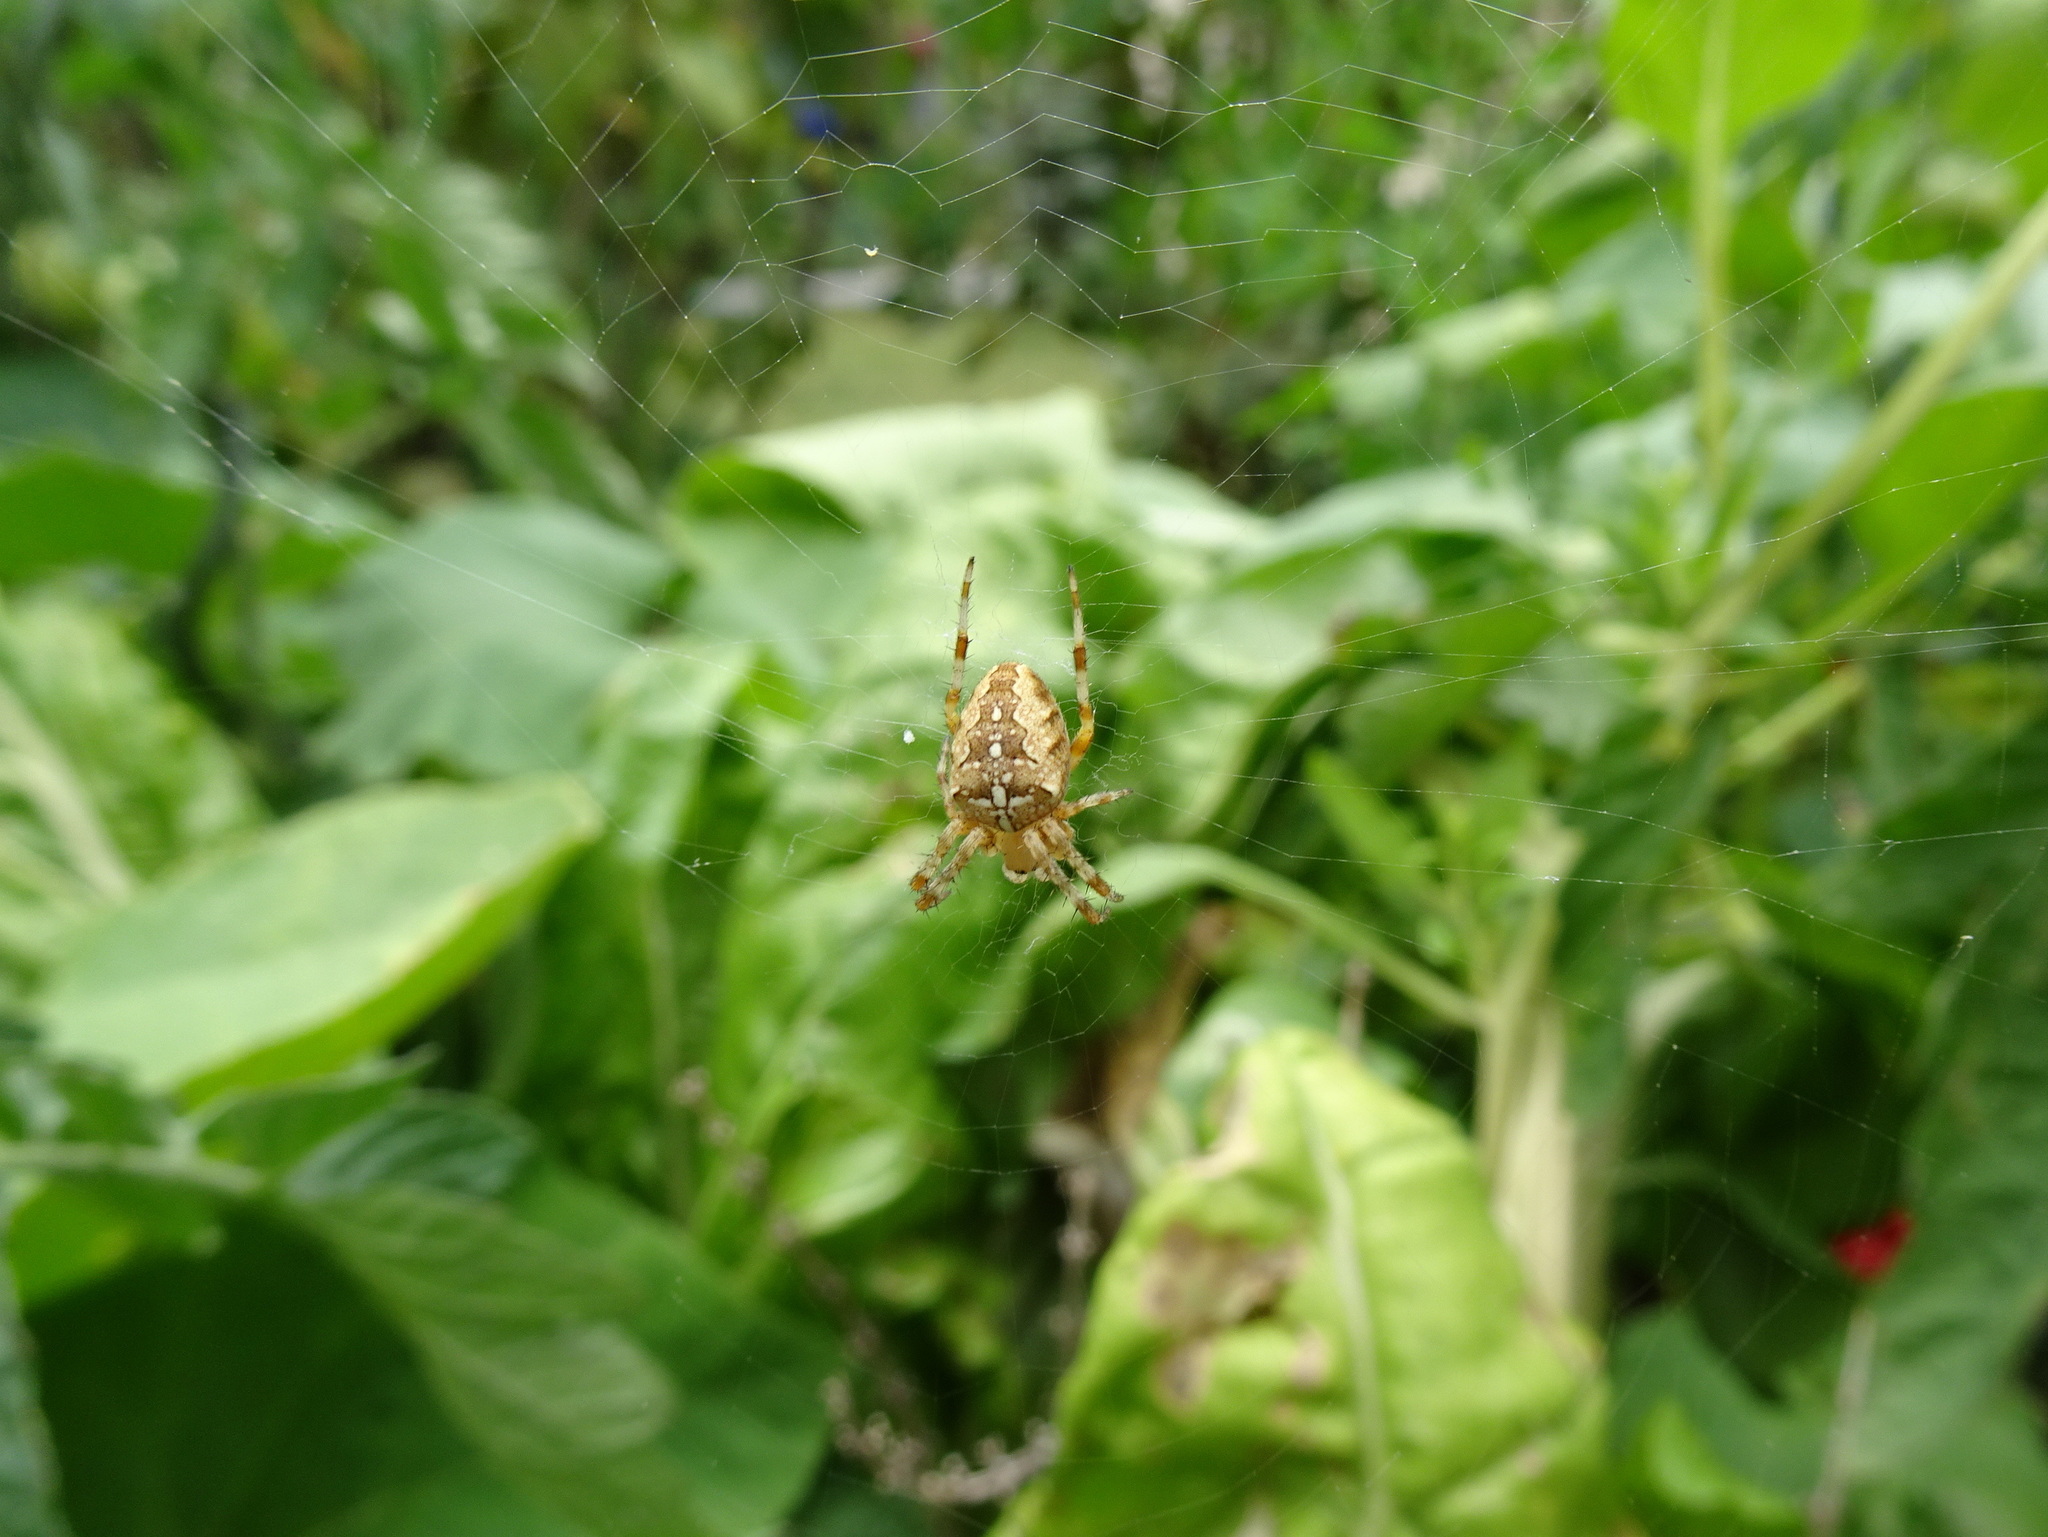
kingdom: Animalia
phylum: Arthropoda
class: Arachnida
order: Araneae
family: Araneidae
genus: Araneus
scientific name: Araneus diadematus
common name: Cross orbweaver
